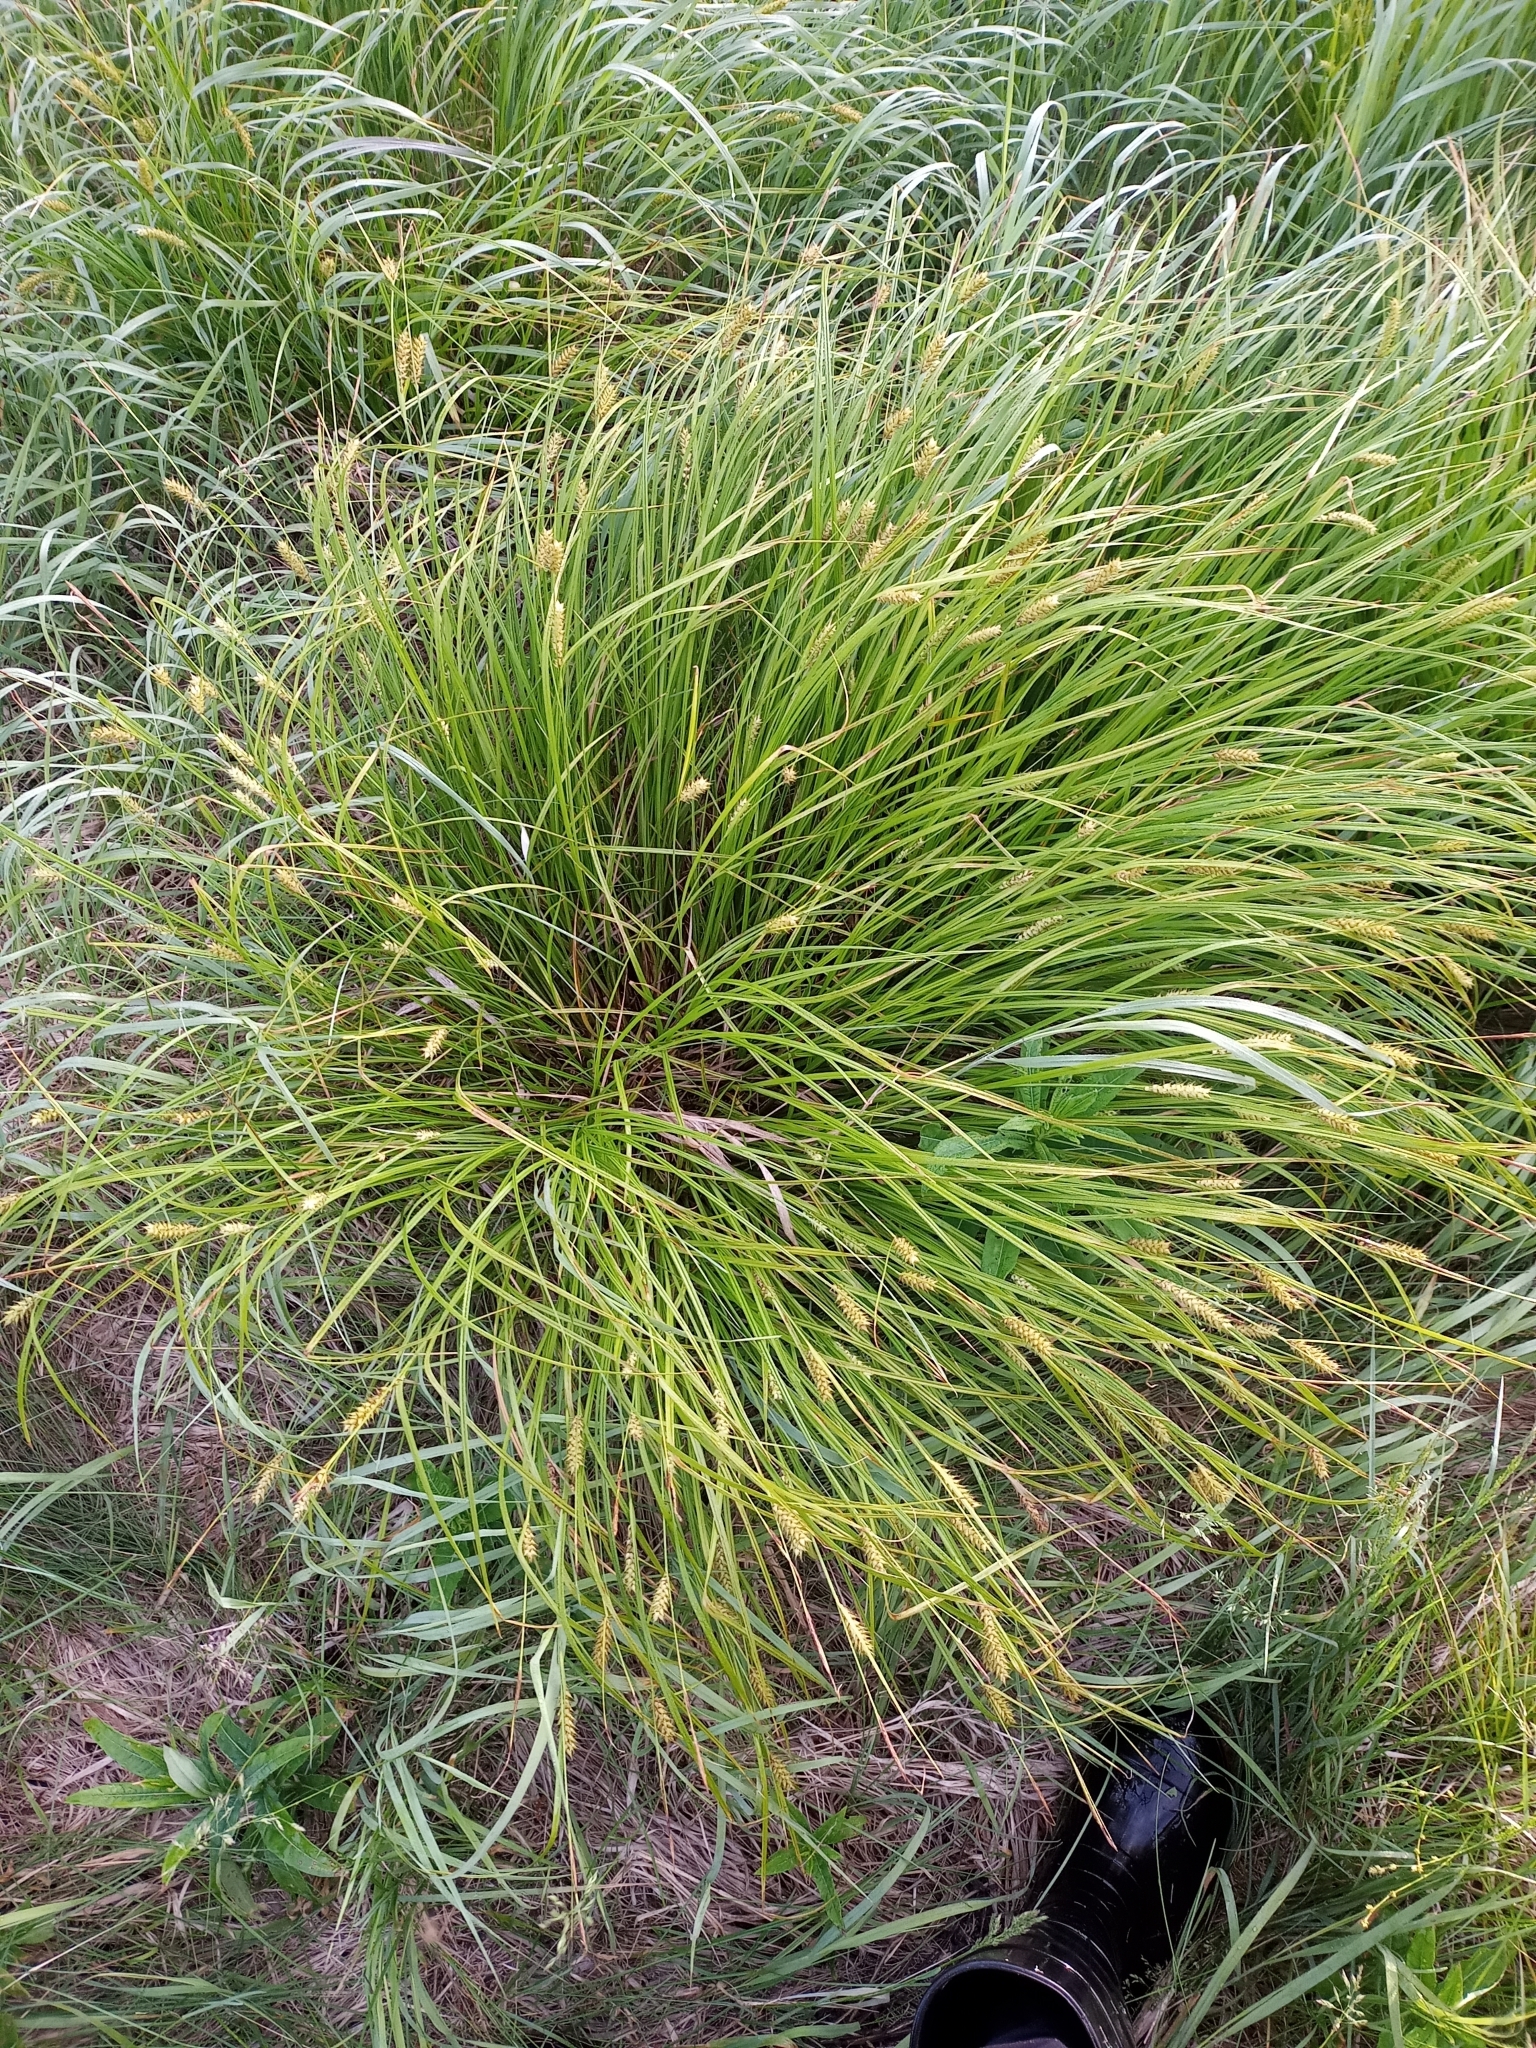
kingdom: Plantae
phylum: Tracheophyta
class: Liliopsida
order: Poales
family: Cyperaceae
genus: Carex
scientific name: Carex vesicaria
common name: Bladder-sedge
